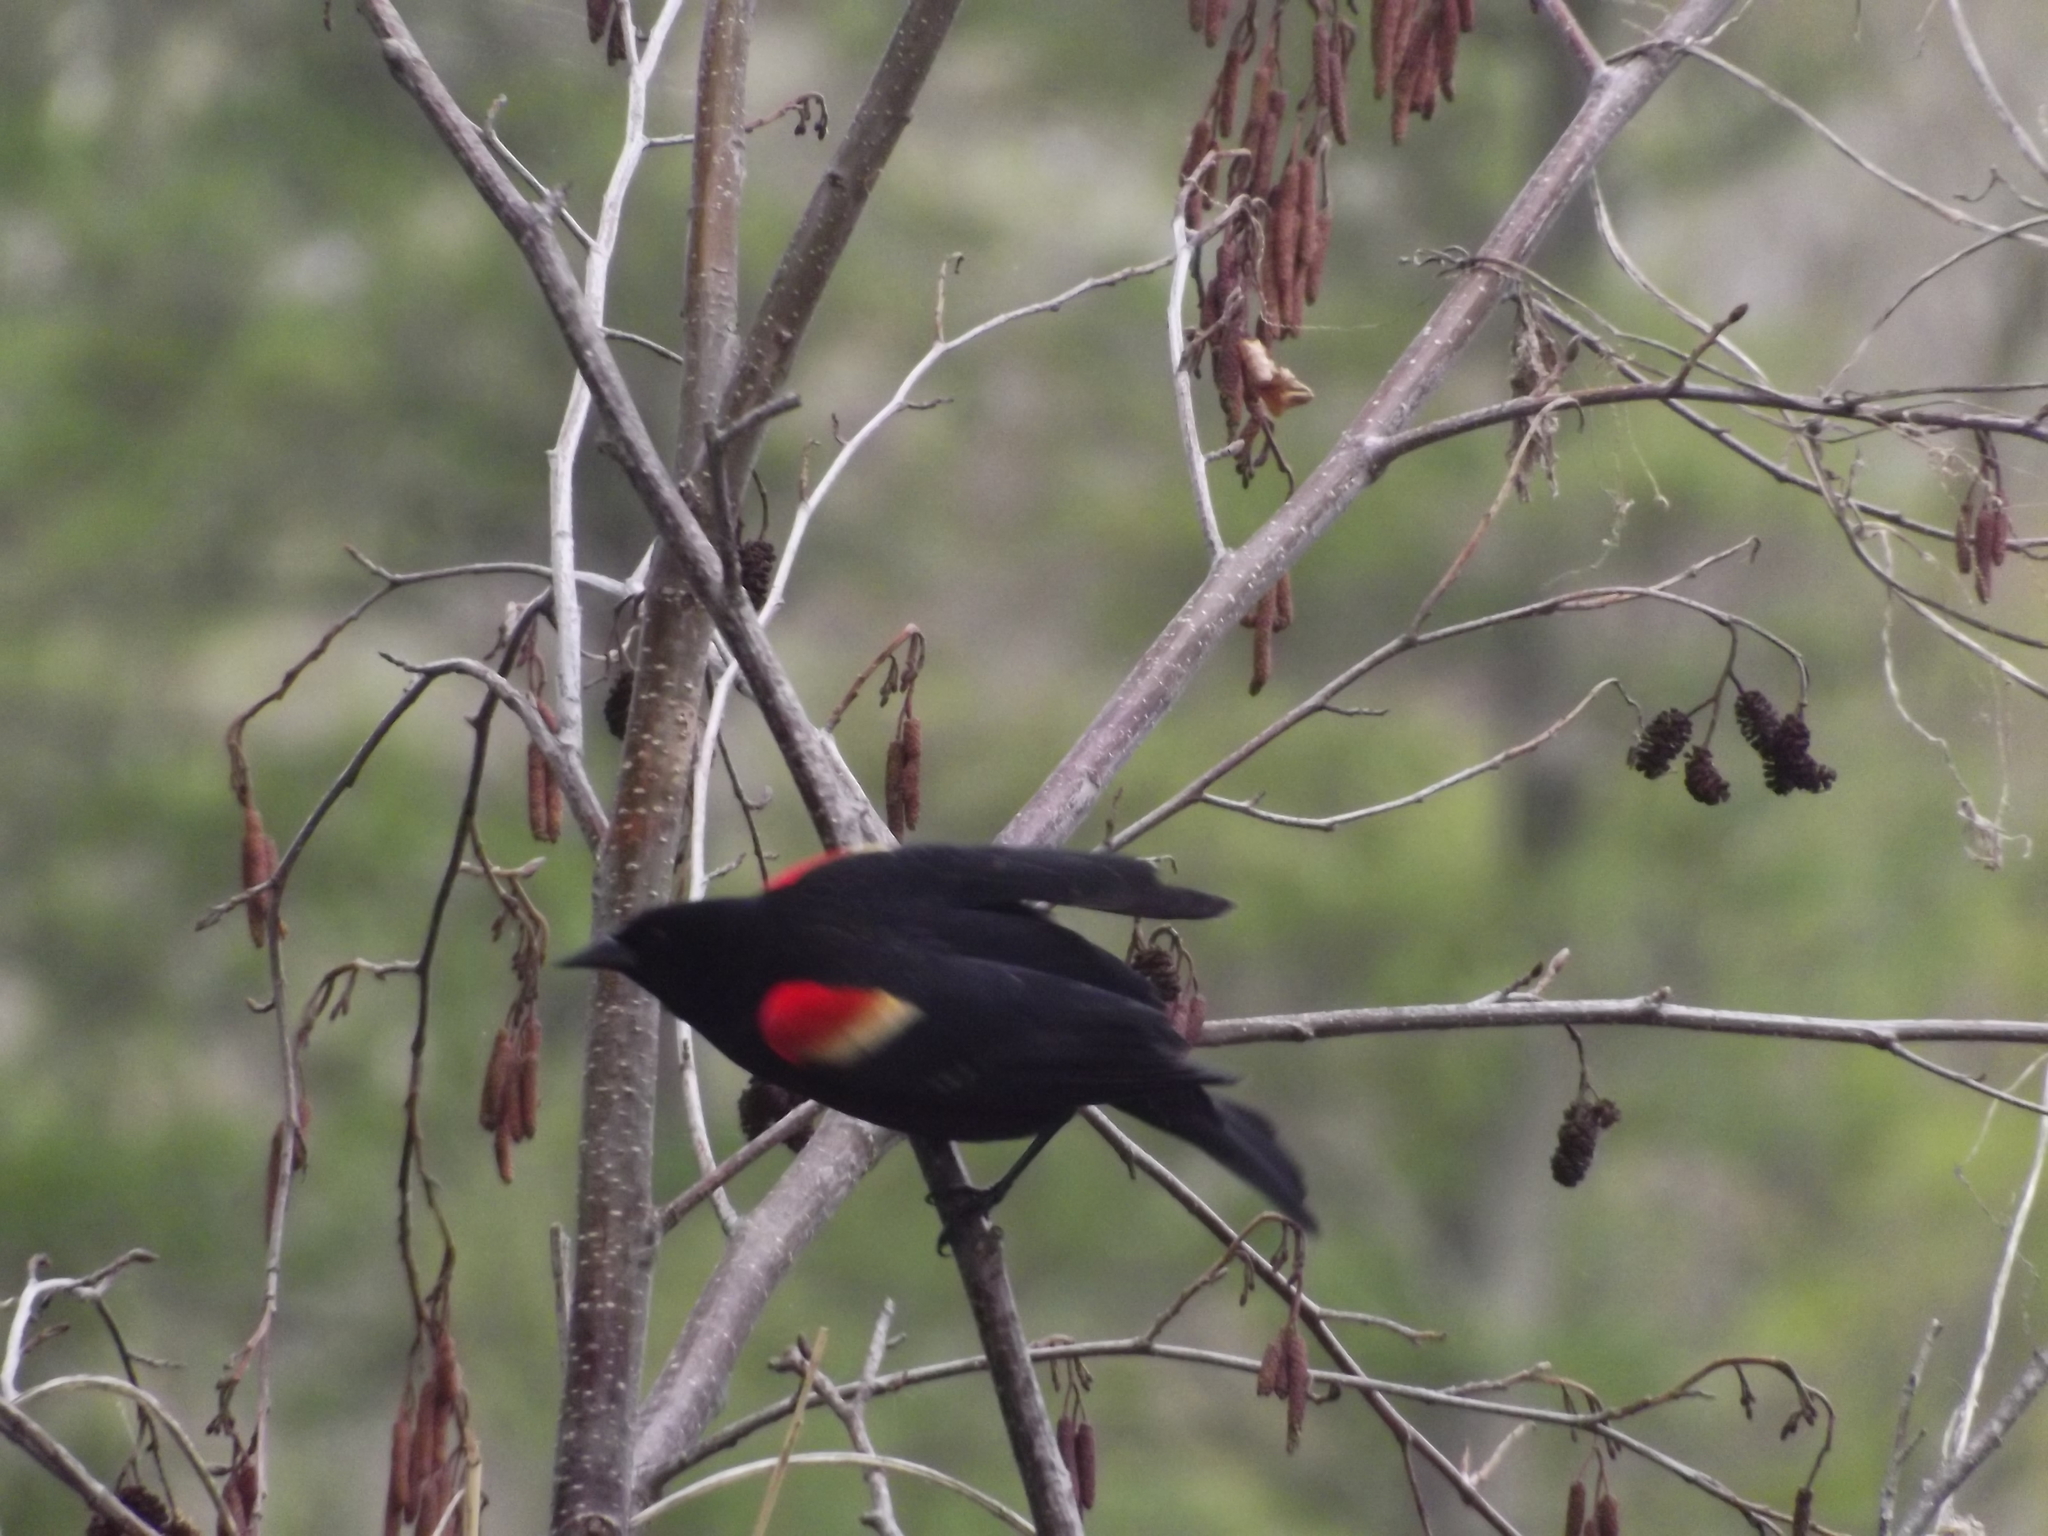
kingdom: Animalia
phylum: Chordata
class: Aves
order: Passeriformes
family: Icteridae
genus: Agelaius
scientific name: Agelaius phoeniceus
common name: Red-winged blackbird
